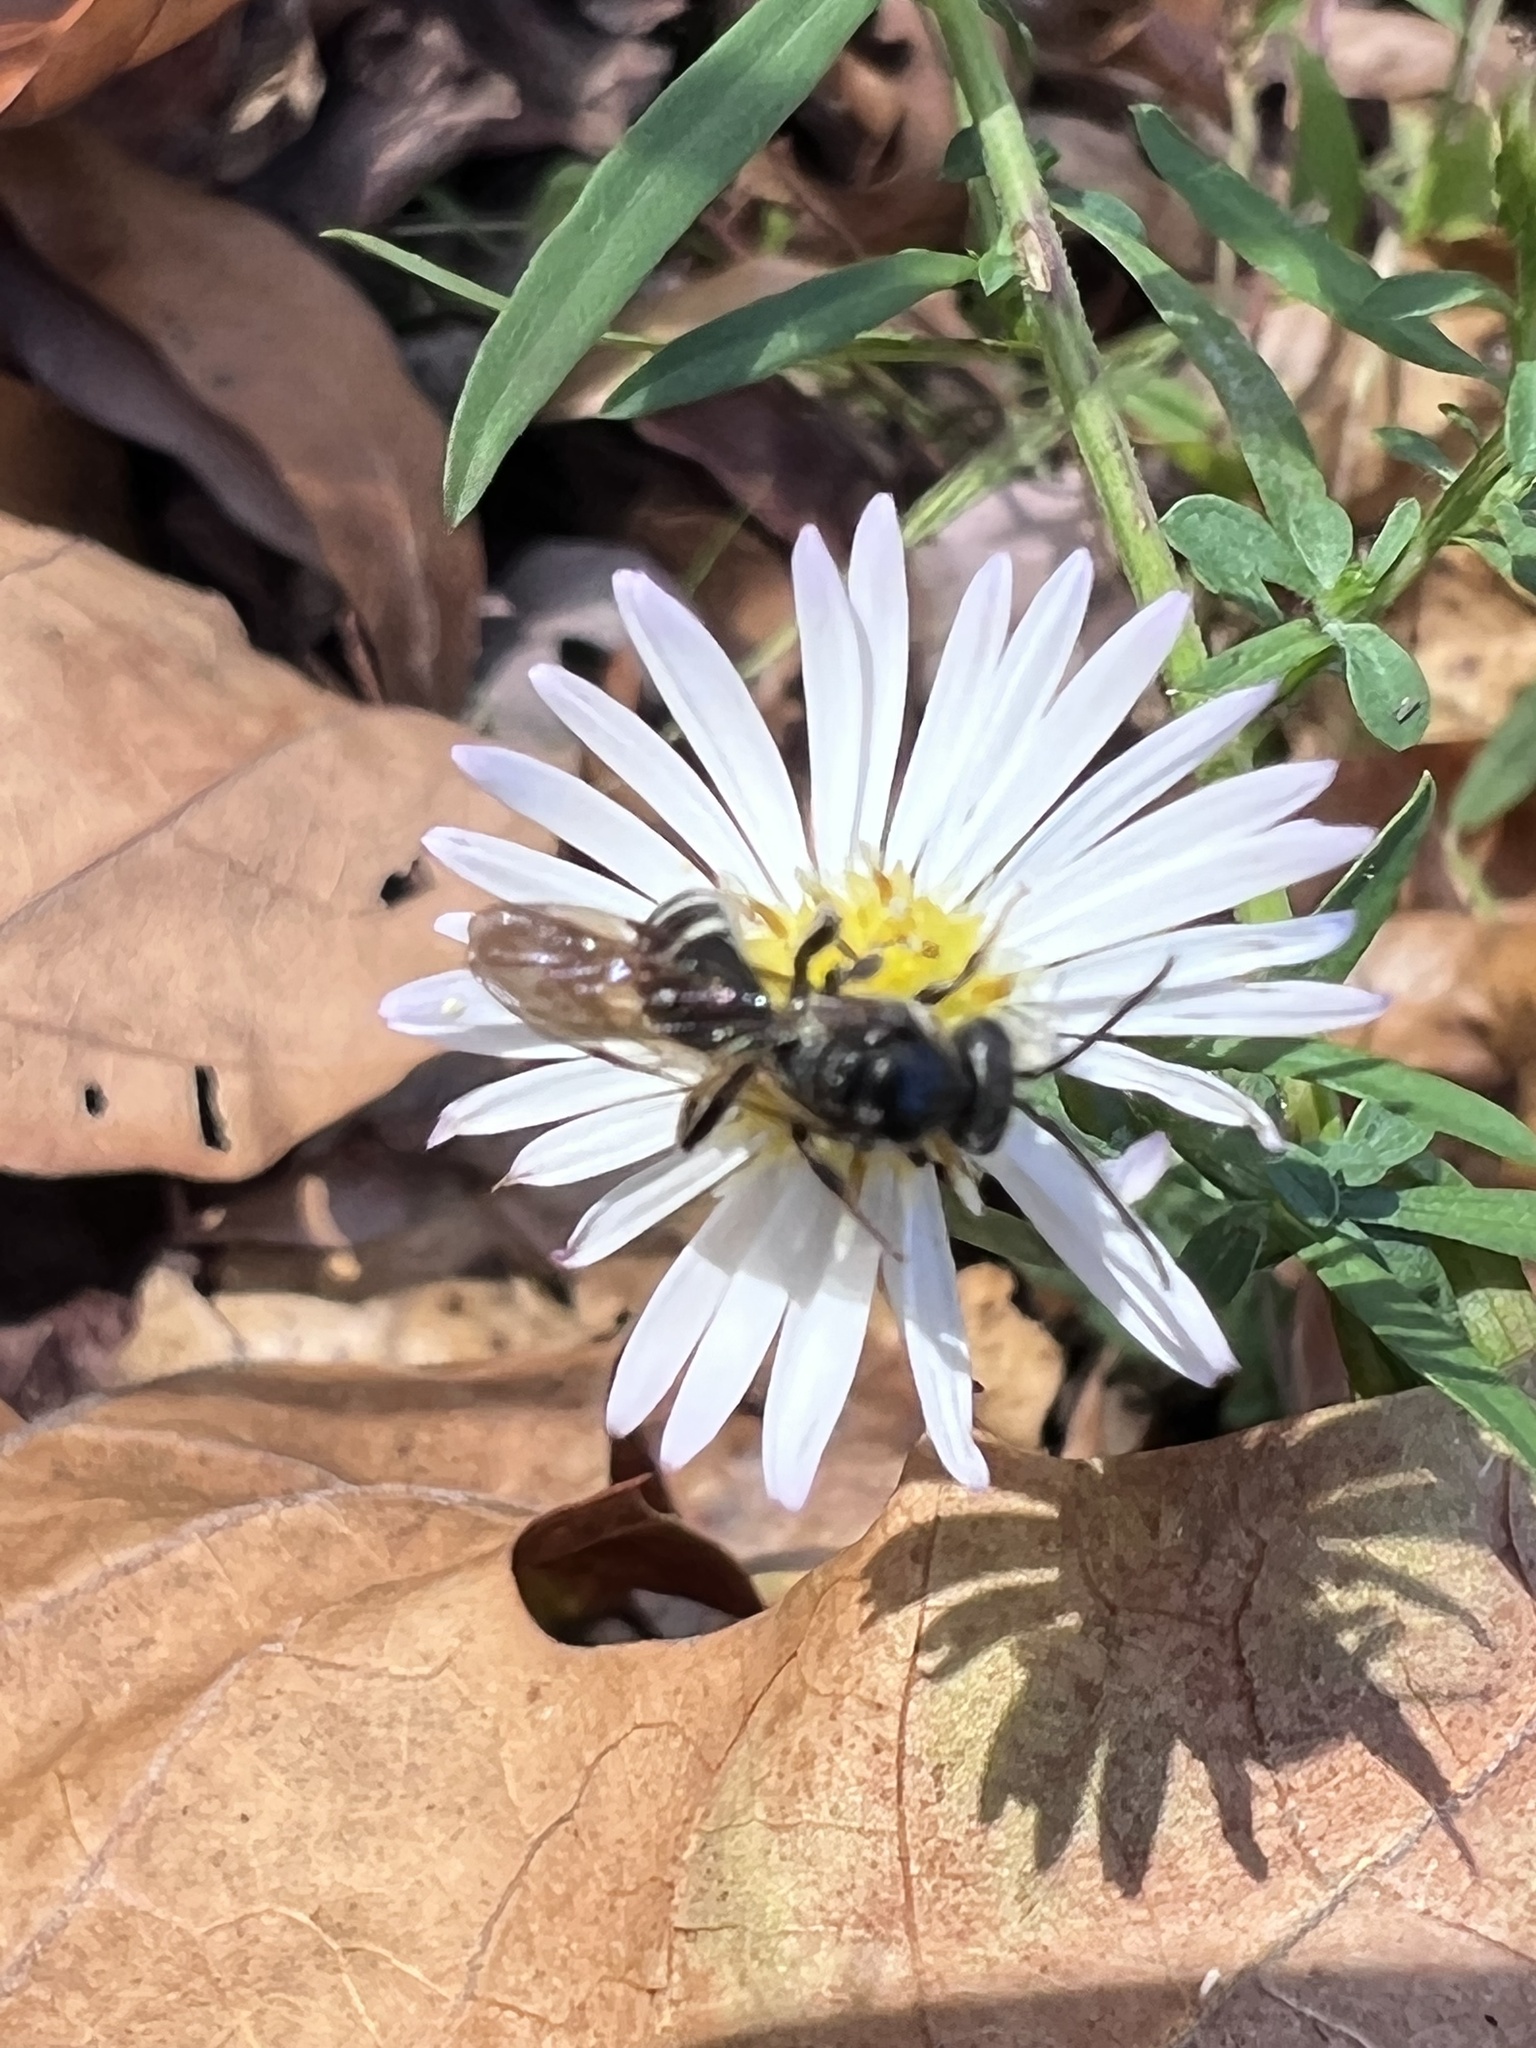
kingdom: Animalia
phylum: Arthropoda
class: Insecta
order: Hymenoptera
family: Halictidae
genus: Lasioglossum
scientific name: Lasioglossum fuscipenne
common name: Brown-winged sweat bee
